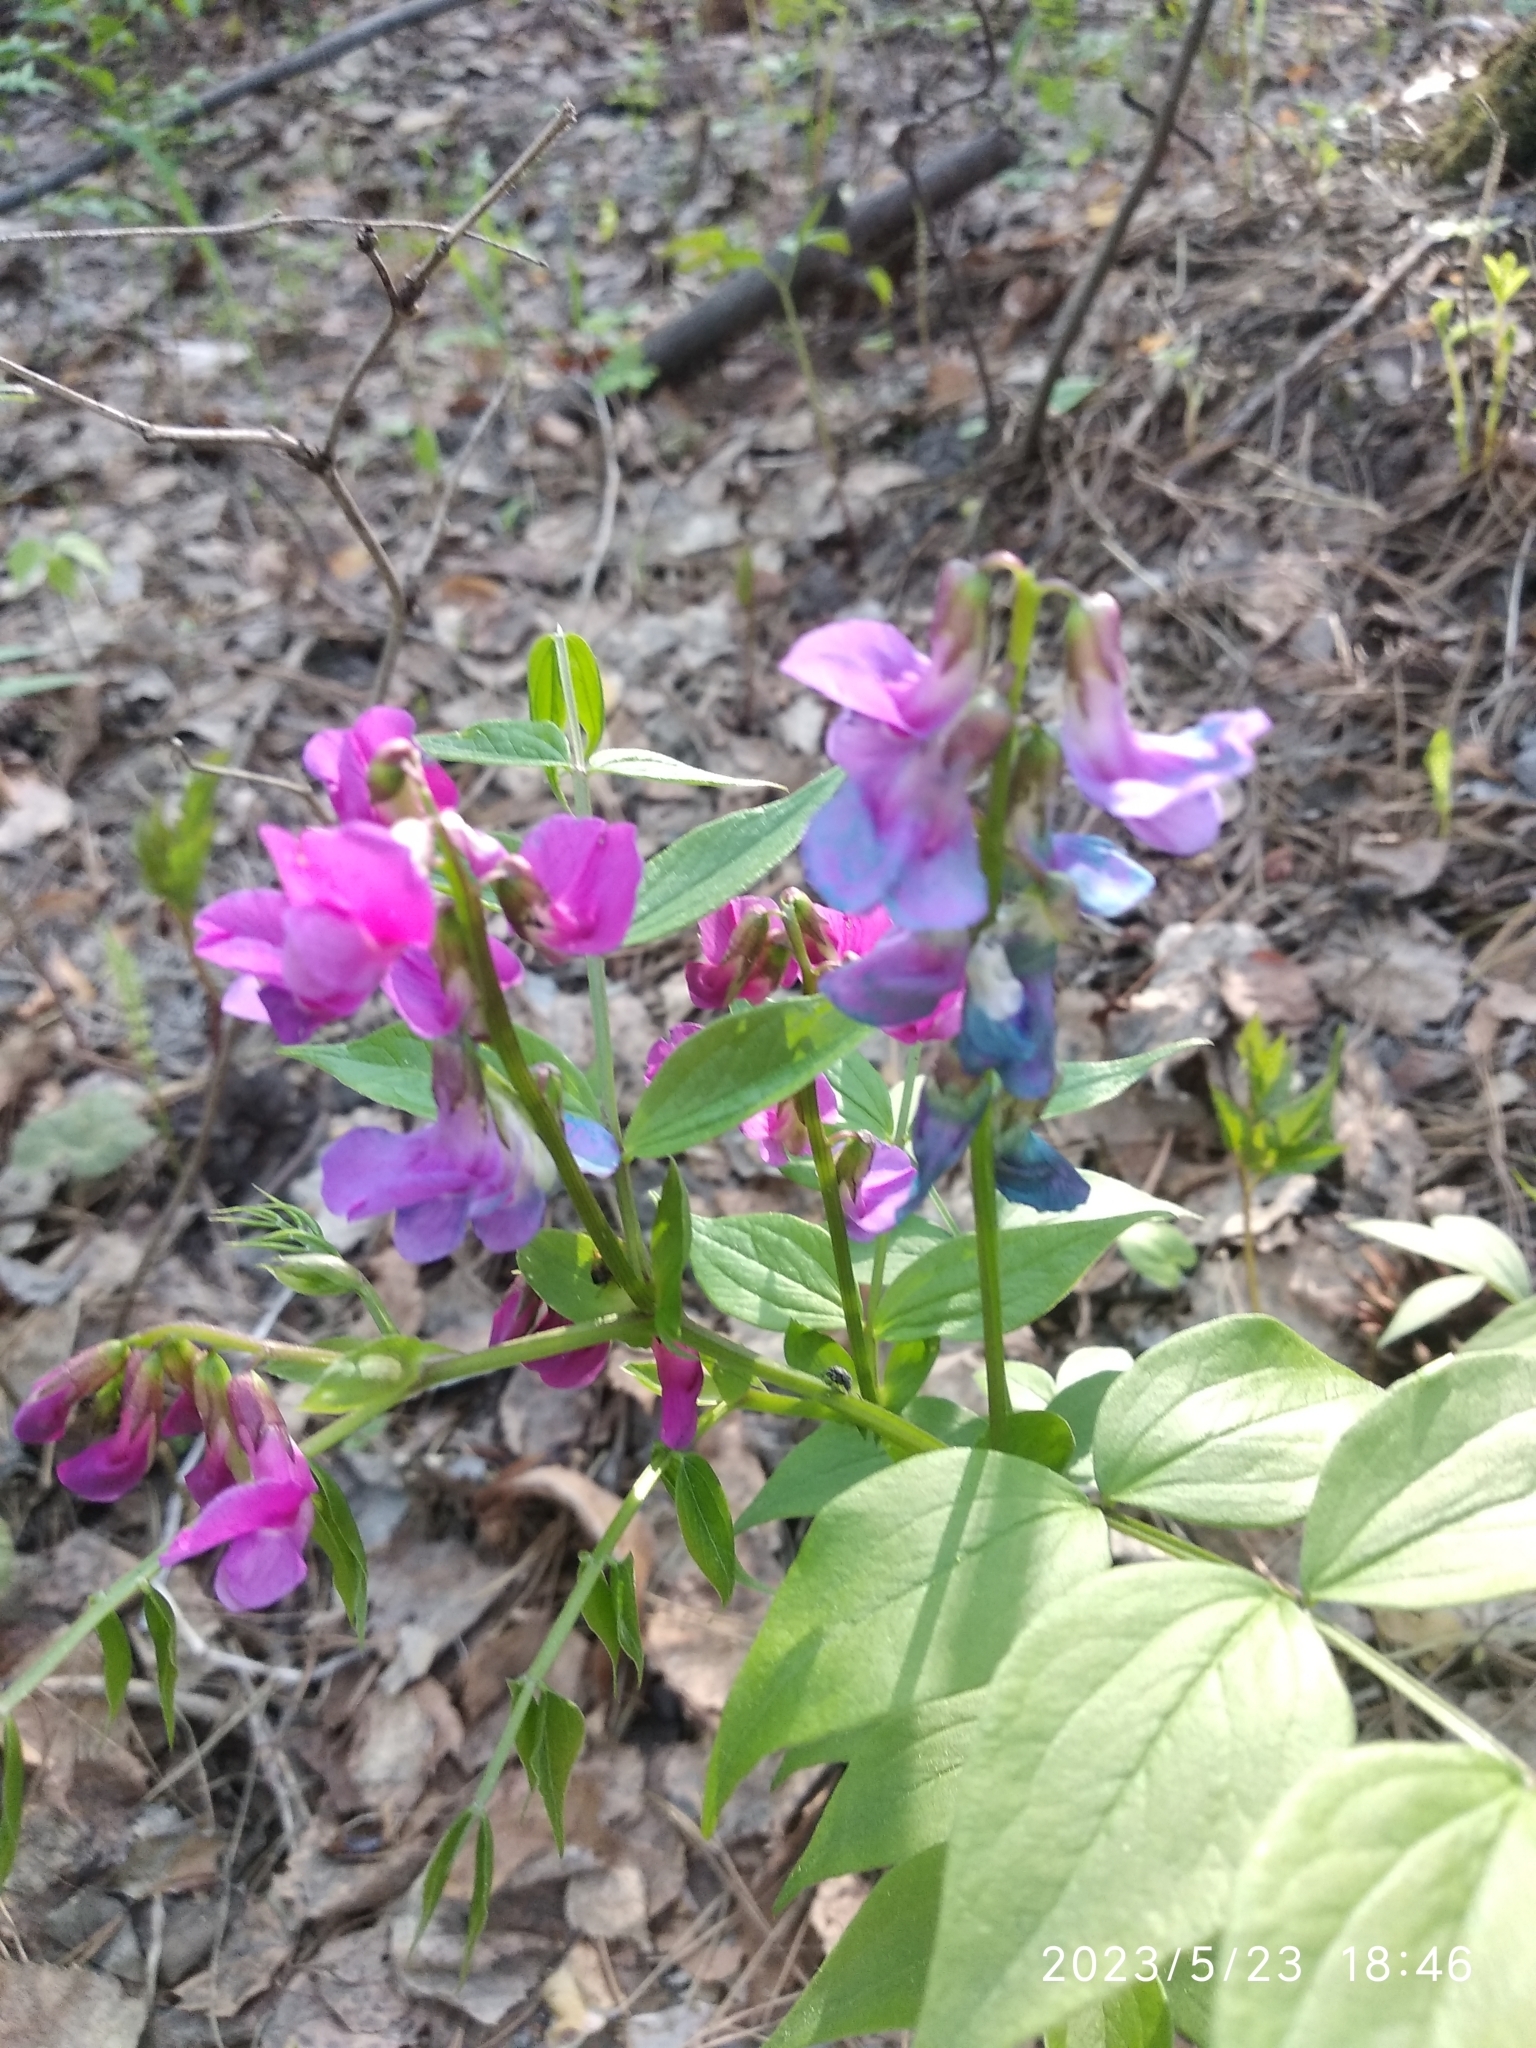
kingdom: Plantae
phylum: Tracheophyta
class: Magnoliopsida
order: Fabales
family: Fabaceae
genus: Lathyrus
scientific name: Lathyrus vernus
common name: Spring pea
